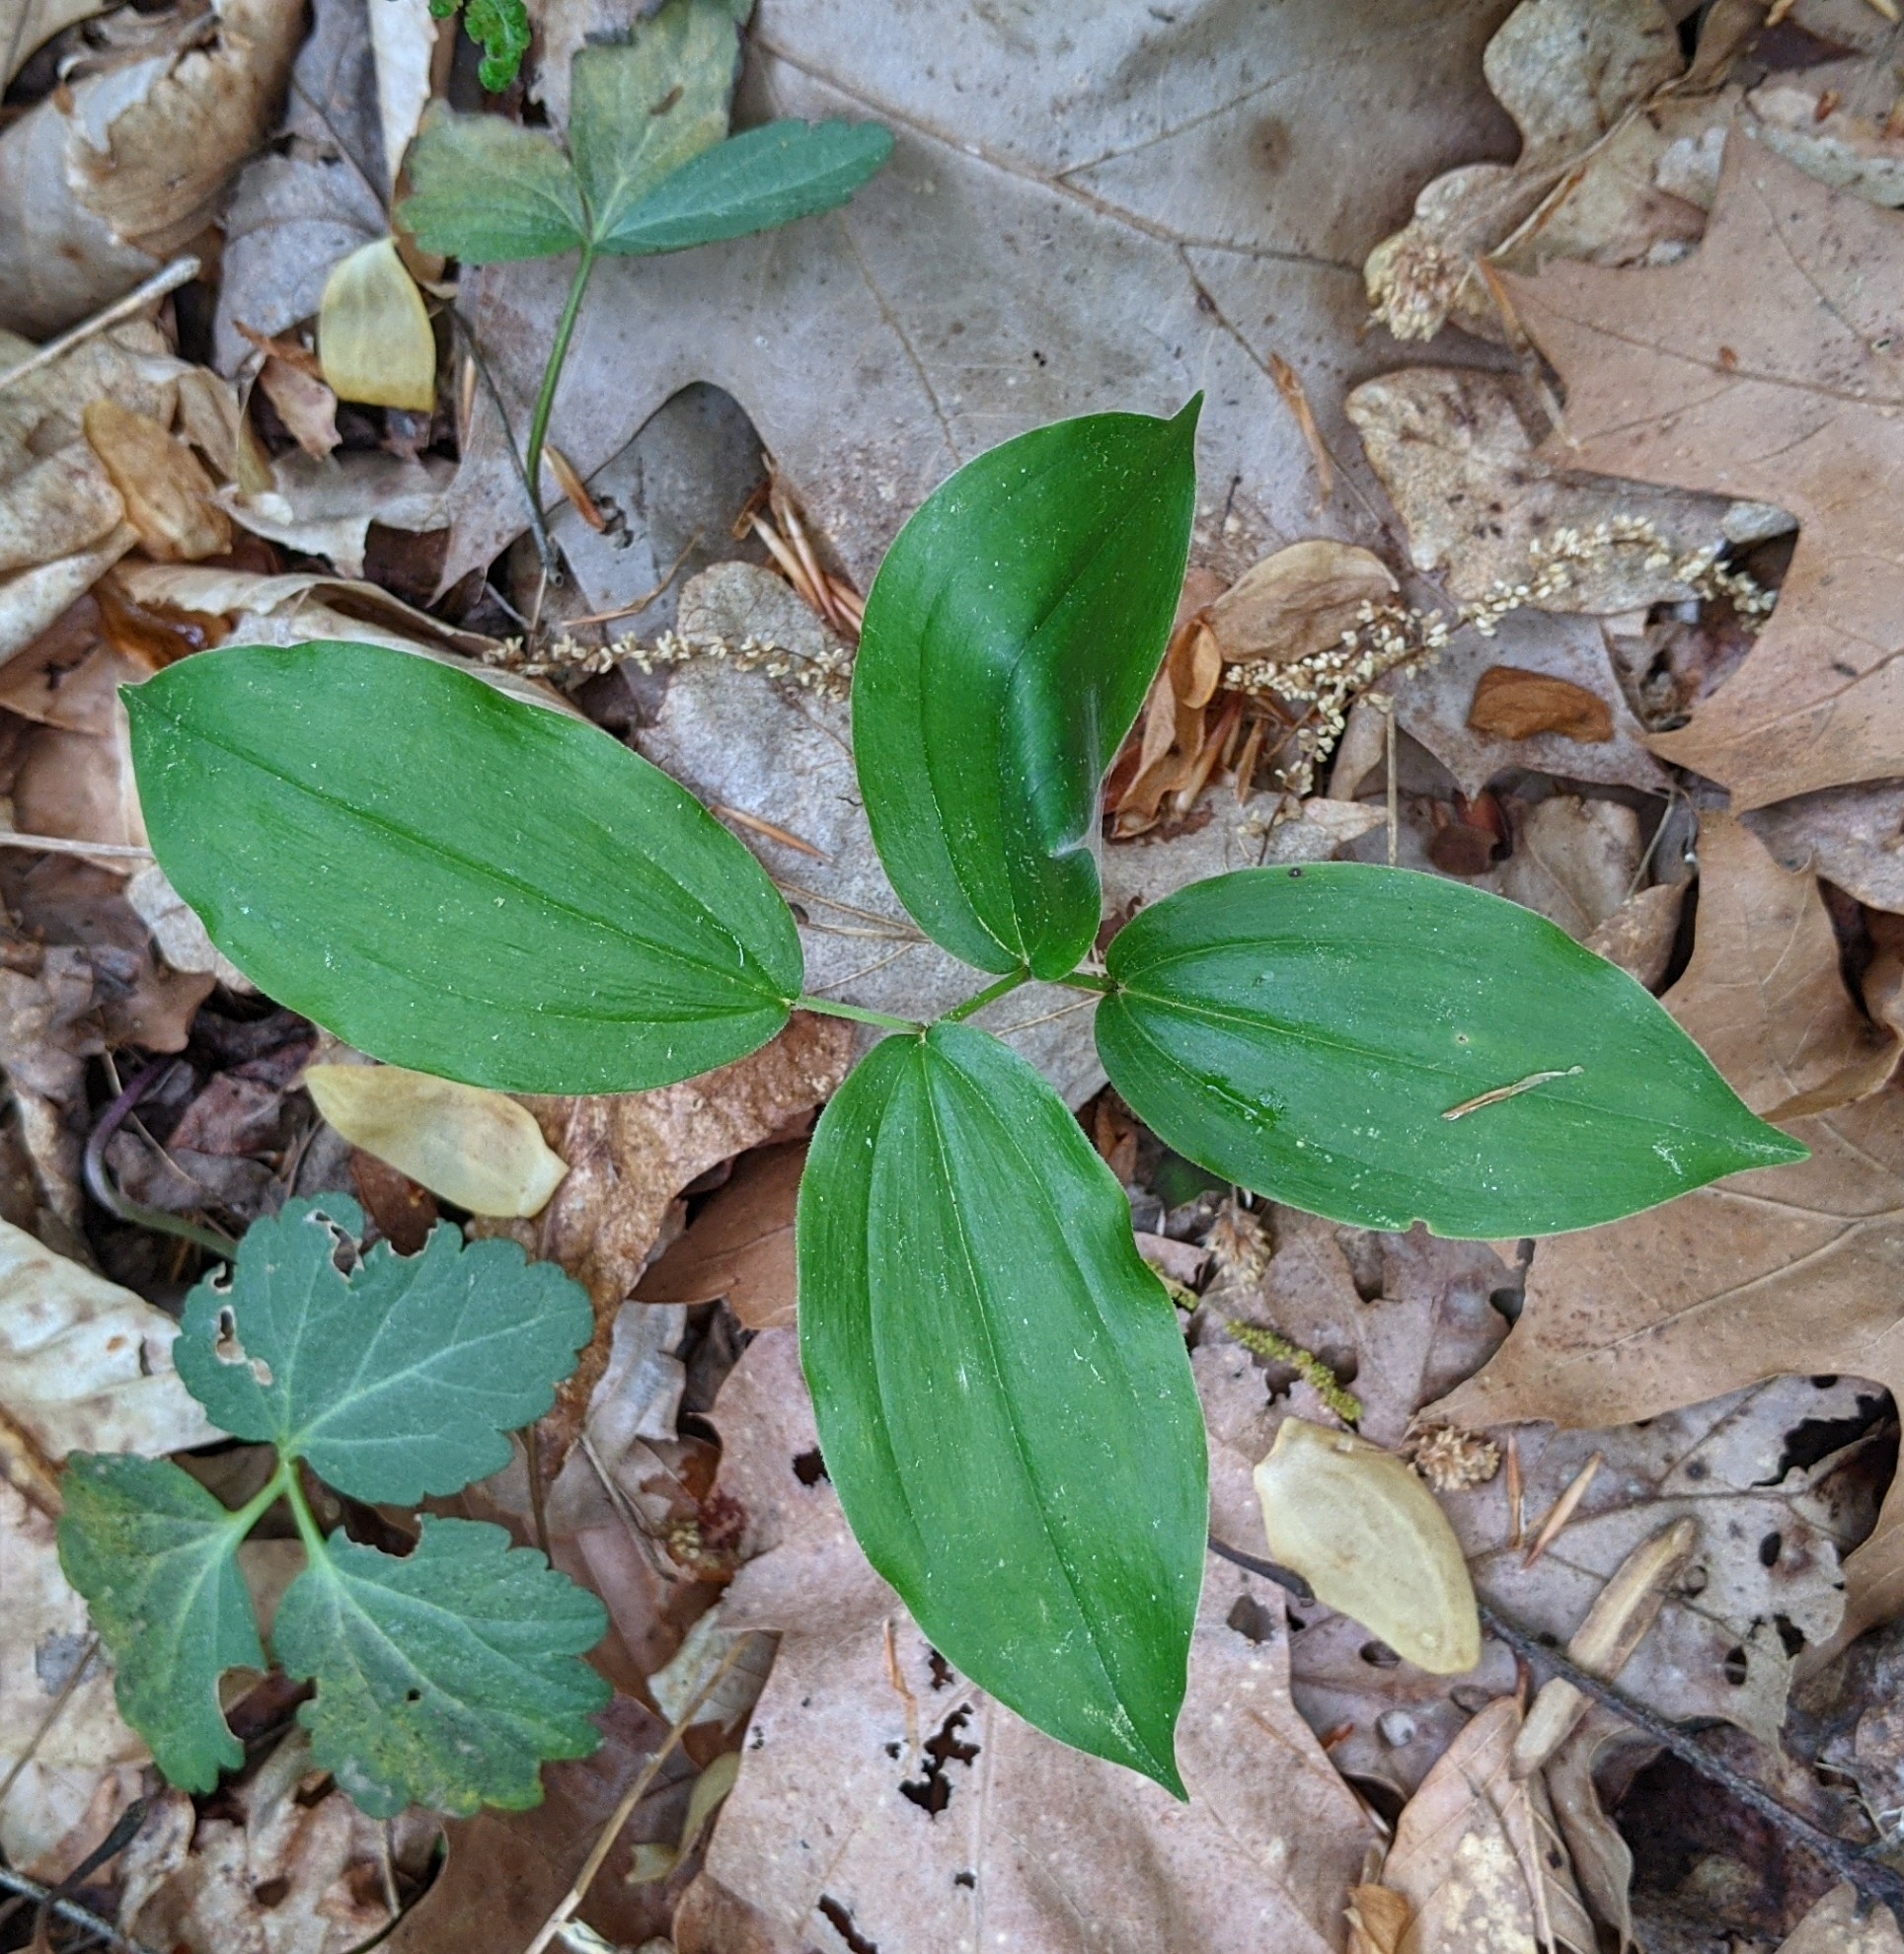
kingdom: Plantae
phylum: Tracheophyta
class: Liliopsida
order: Asparagales
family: Asparagaceae
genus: Maianthemum
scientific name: Maianthemum racemosum
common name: False spikenard
